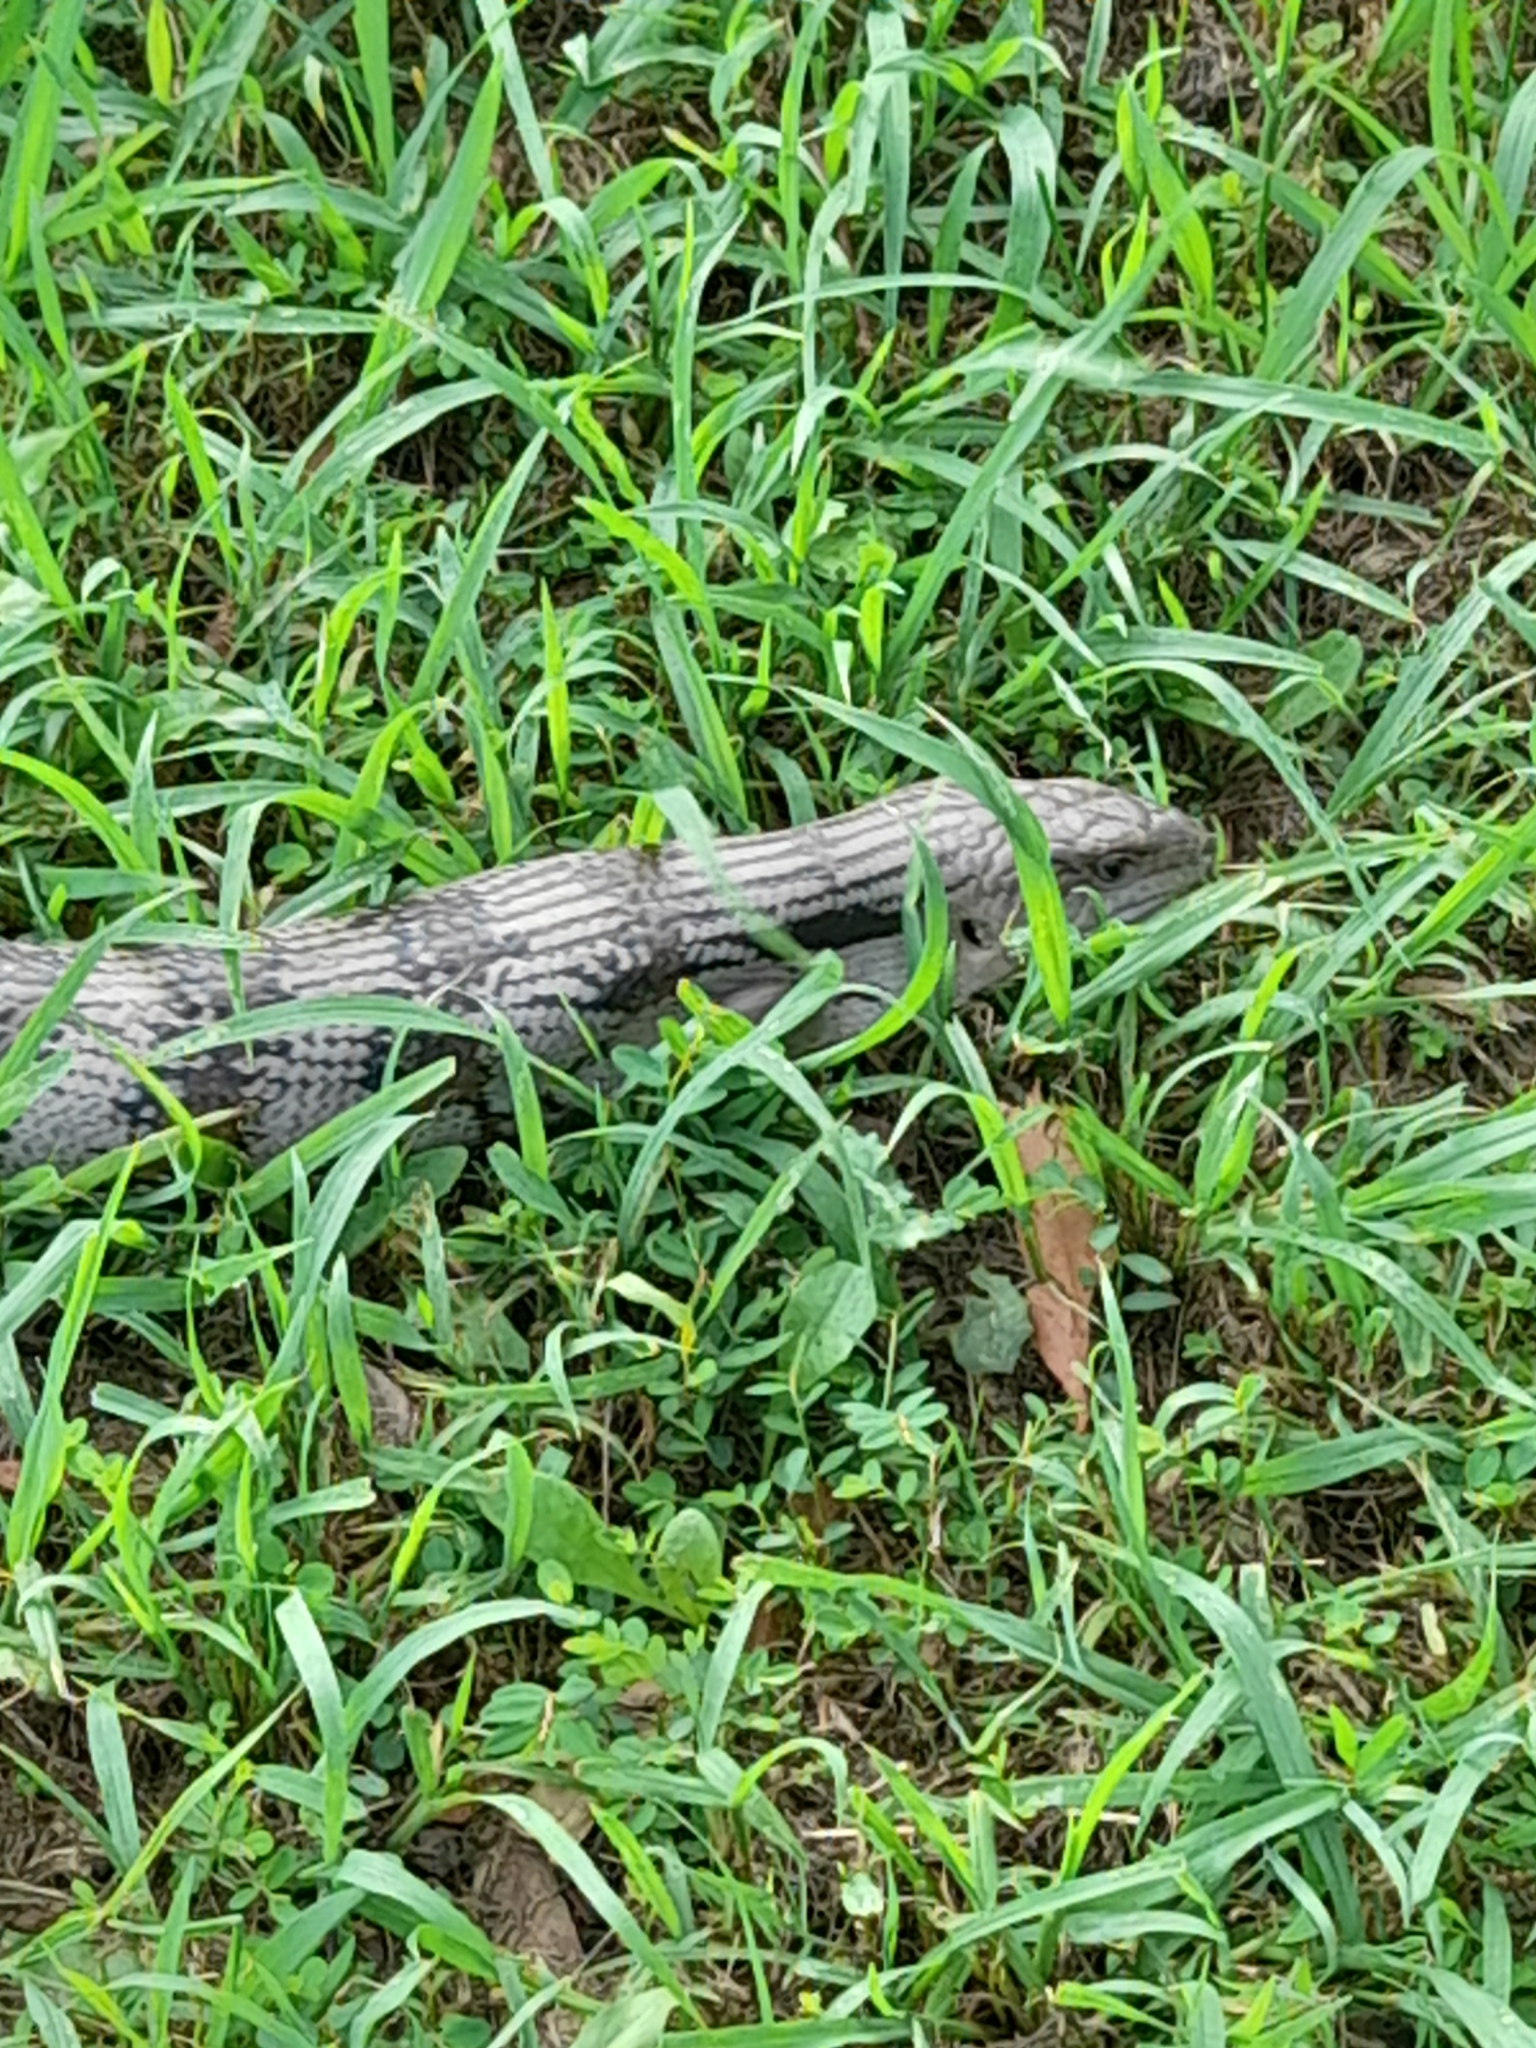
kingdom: Animalia
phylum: Chordata
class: Squamata
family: Scincidae
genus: Tiliqua
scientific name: Tiliqua scincoides
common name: Common bluetongue
